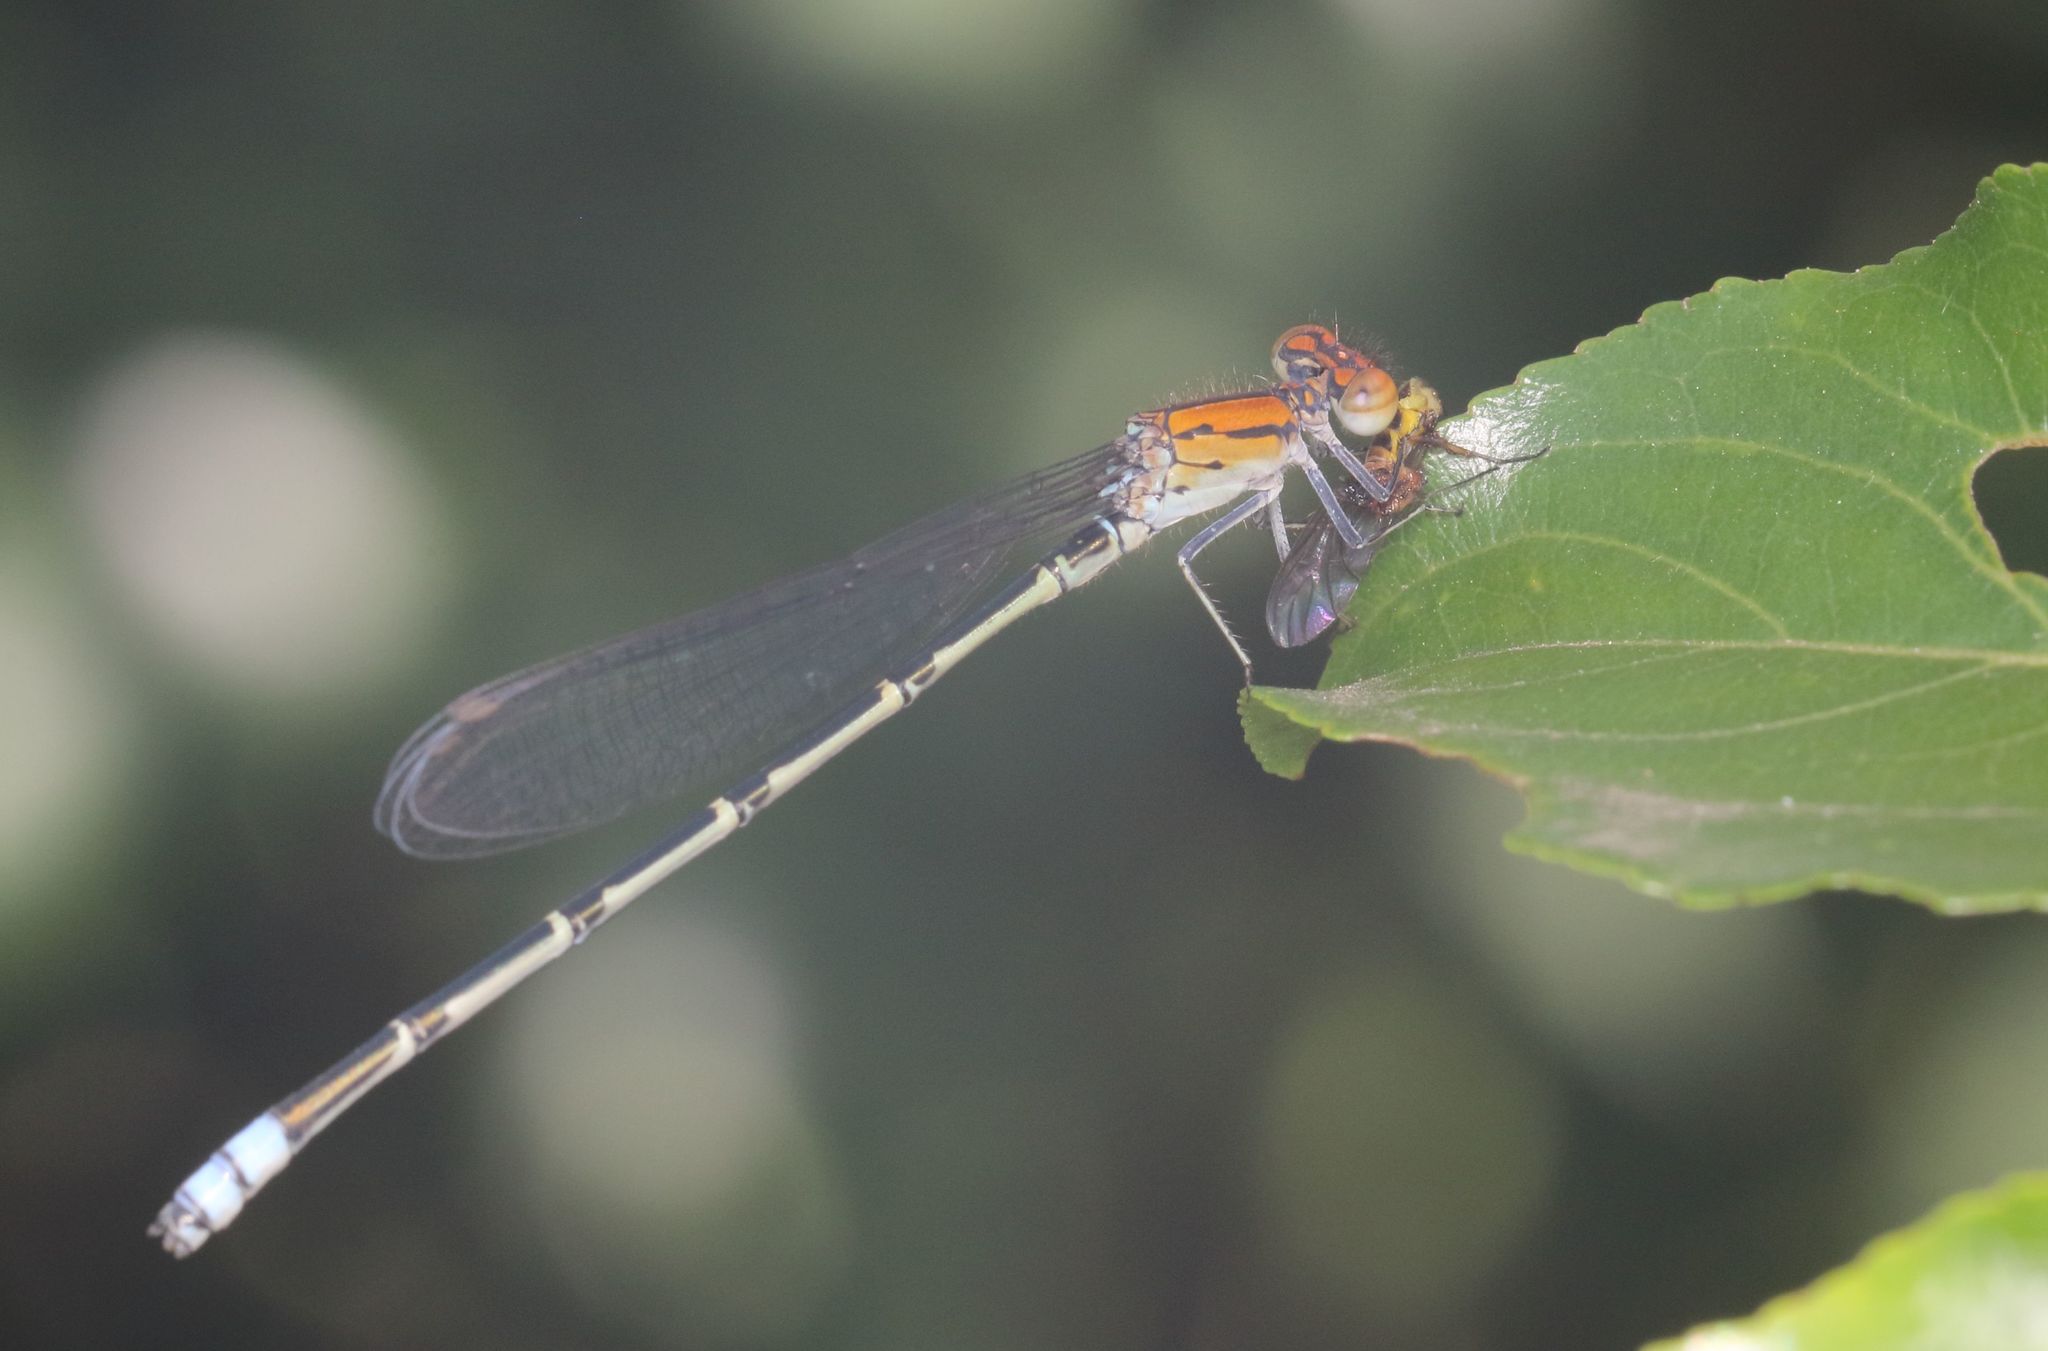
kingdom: Animalia
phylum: Arthropoda
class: Insecta
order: Odonata
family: Coenagrionidae
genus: Pseudagrion
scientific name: Pseudagrion massaicum
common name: Masai sprite
